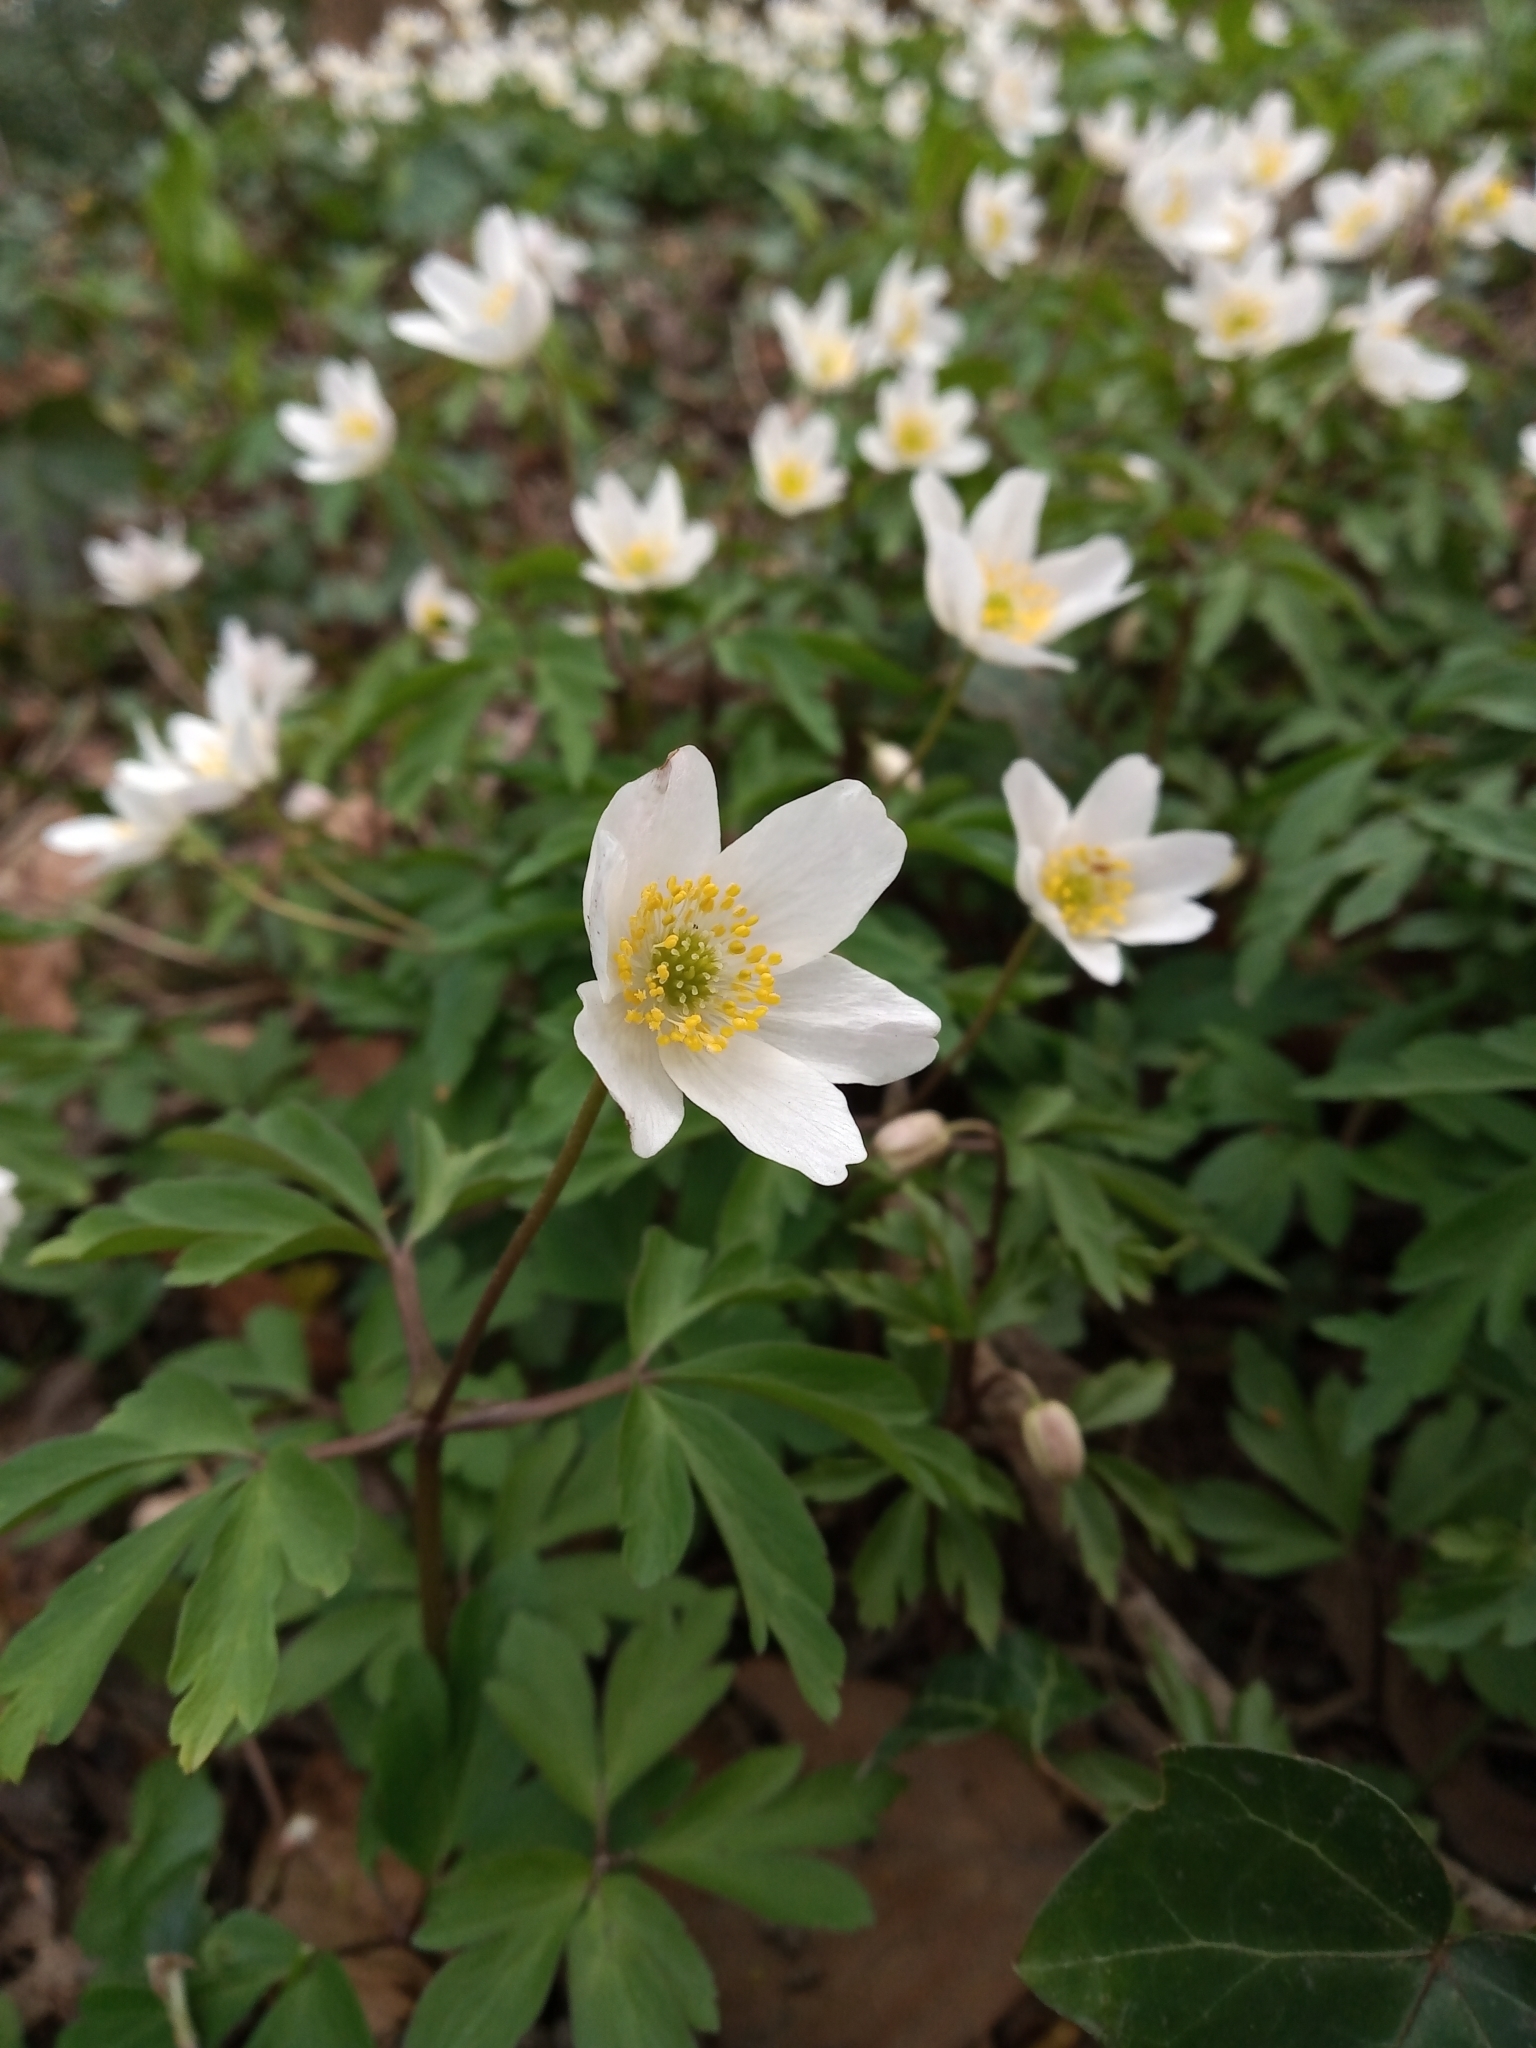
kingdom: Plantae
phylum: Tracheophyta
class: Magnoliopsida
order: Ranunculales
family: Ranunculaceae
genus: Anemone
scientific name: Anemone nemorosa
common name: Wood anemone
